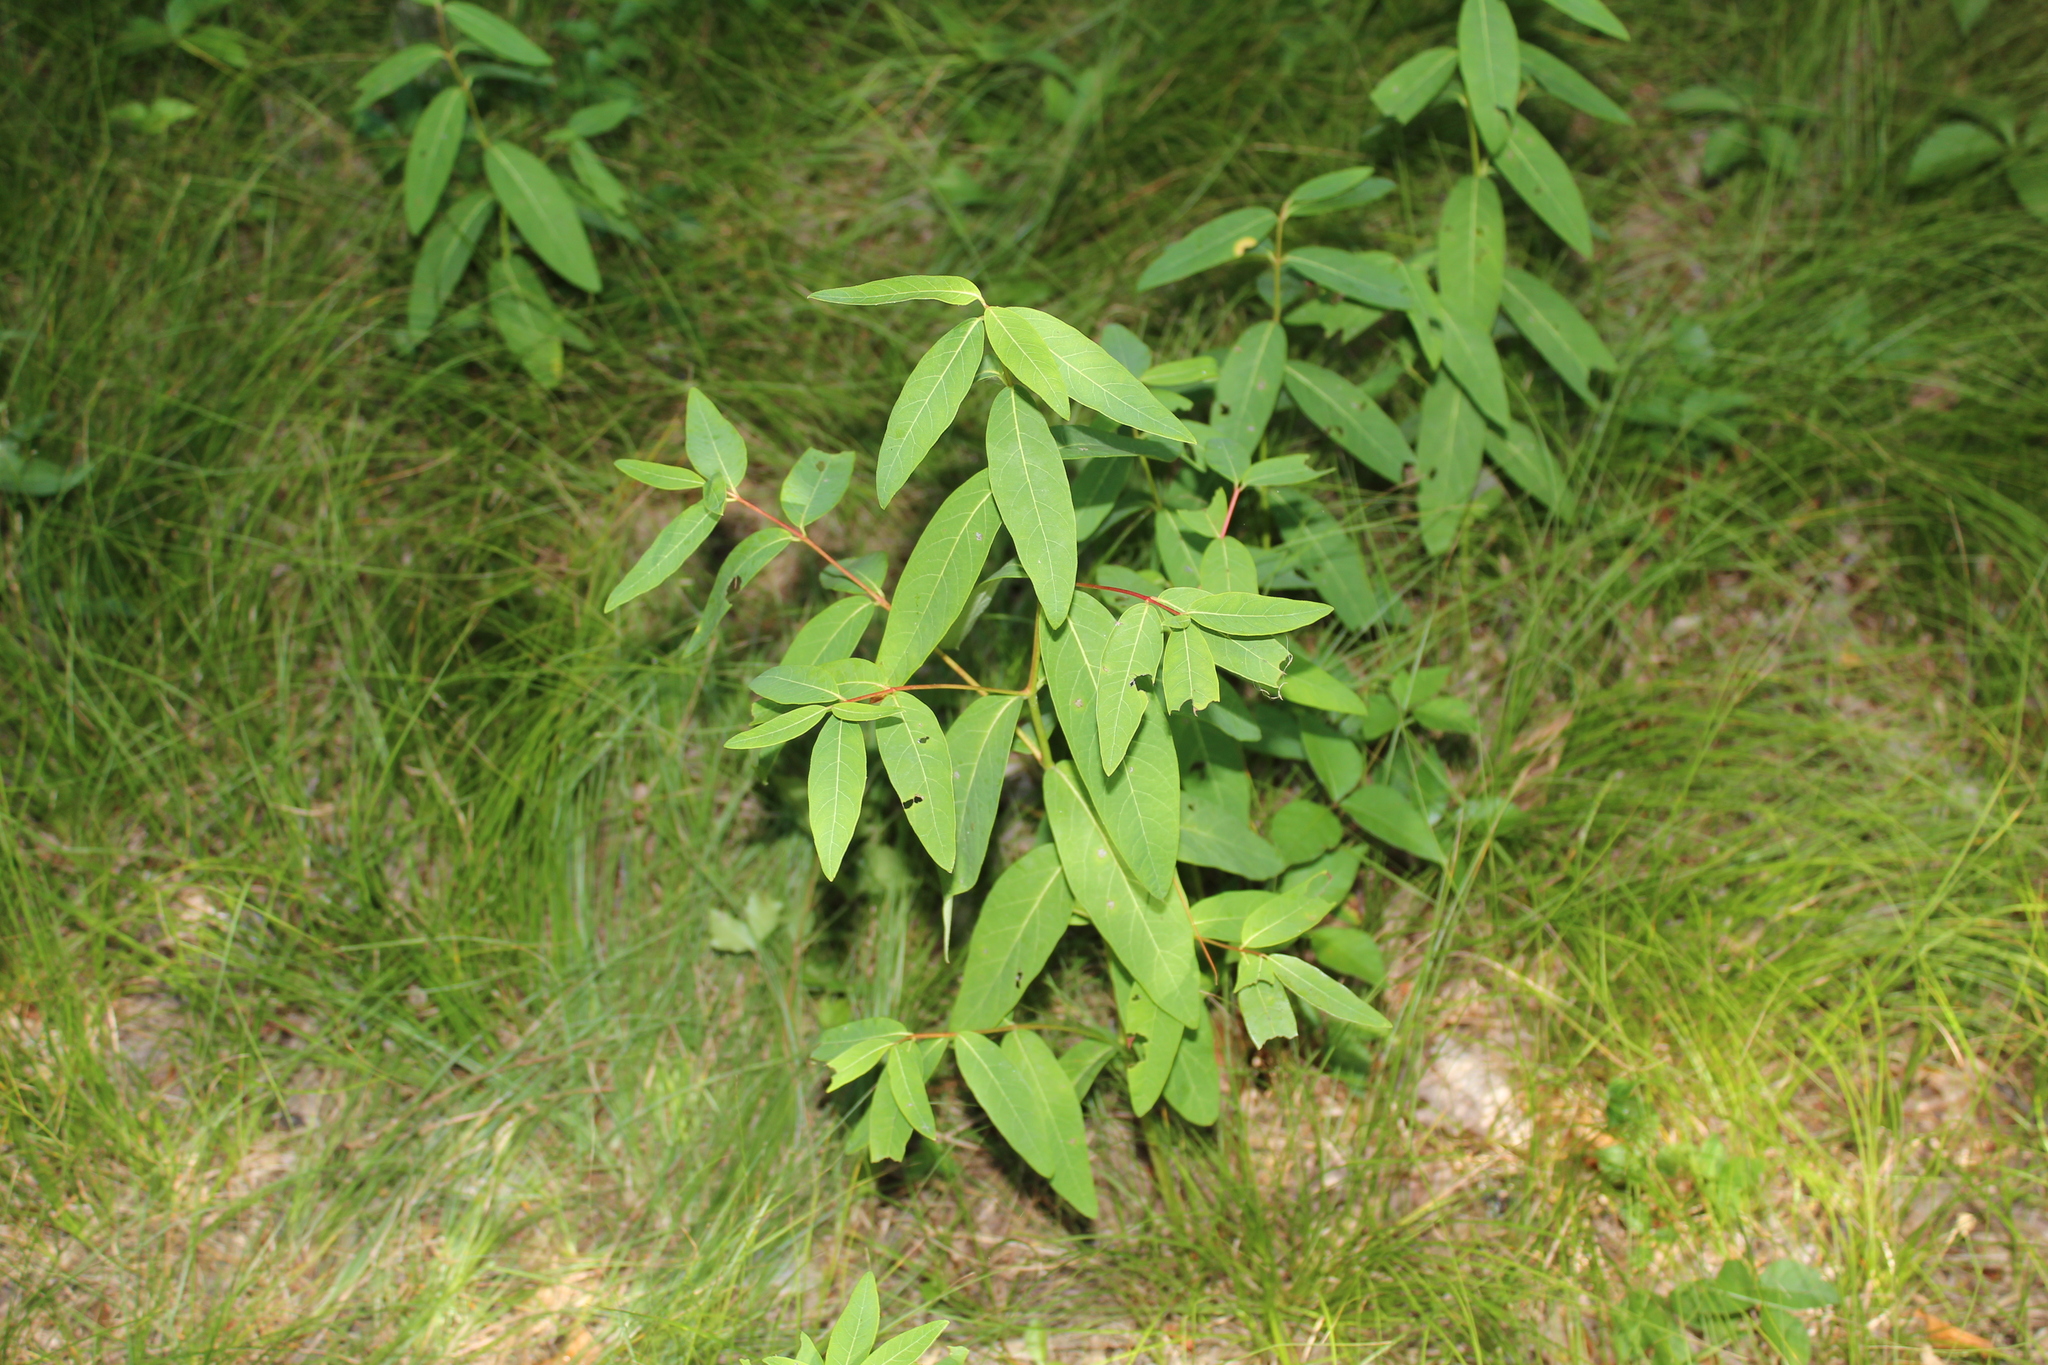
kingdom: Plantae
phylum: Tracheophyta
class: Magnoliopsida
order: Gentianales
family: Apocynaceae
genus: Apocynum
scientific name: Apocynum cannabinum
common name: Hemp dogbane
